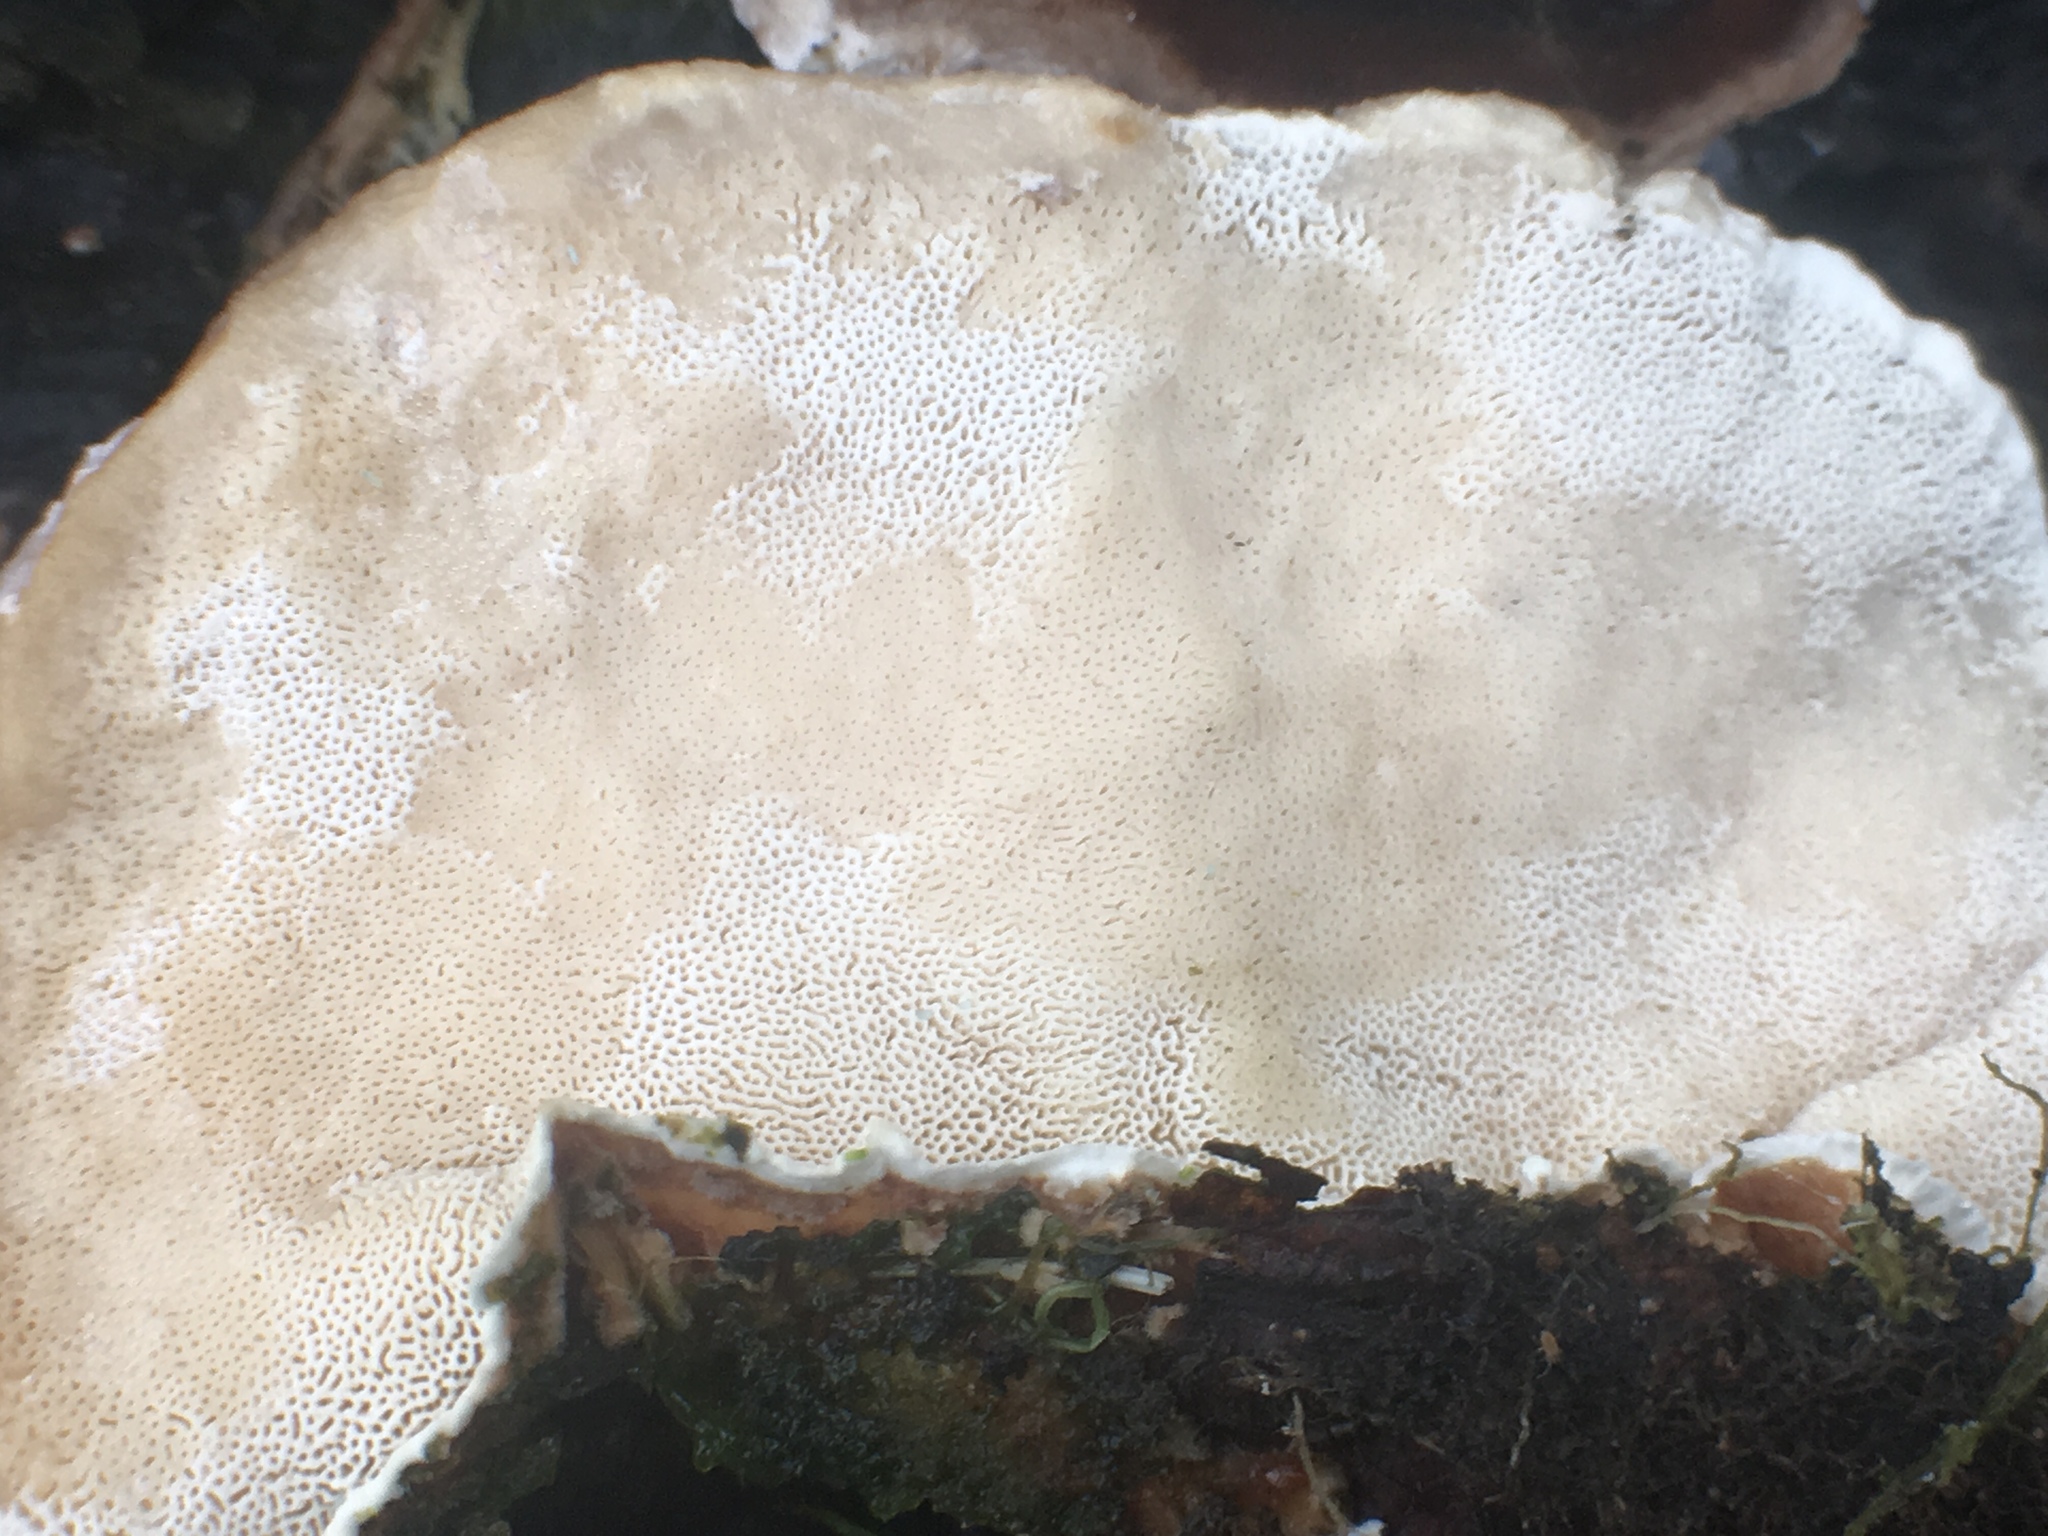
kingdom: Fungi
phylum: Basidiomycota
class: Agaricomycetes
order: Polyporales
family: Polyporaceae
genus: Trametes
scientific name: Trametes versicolor
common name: Turkeytail
